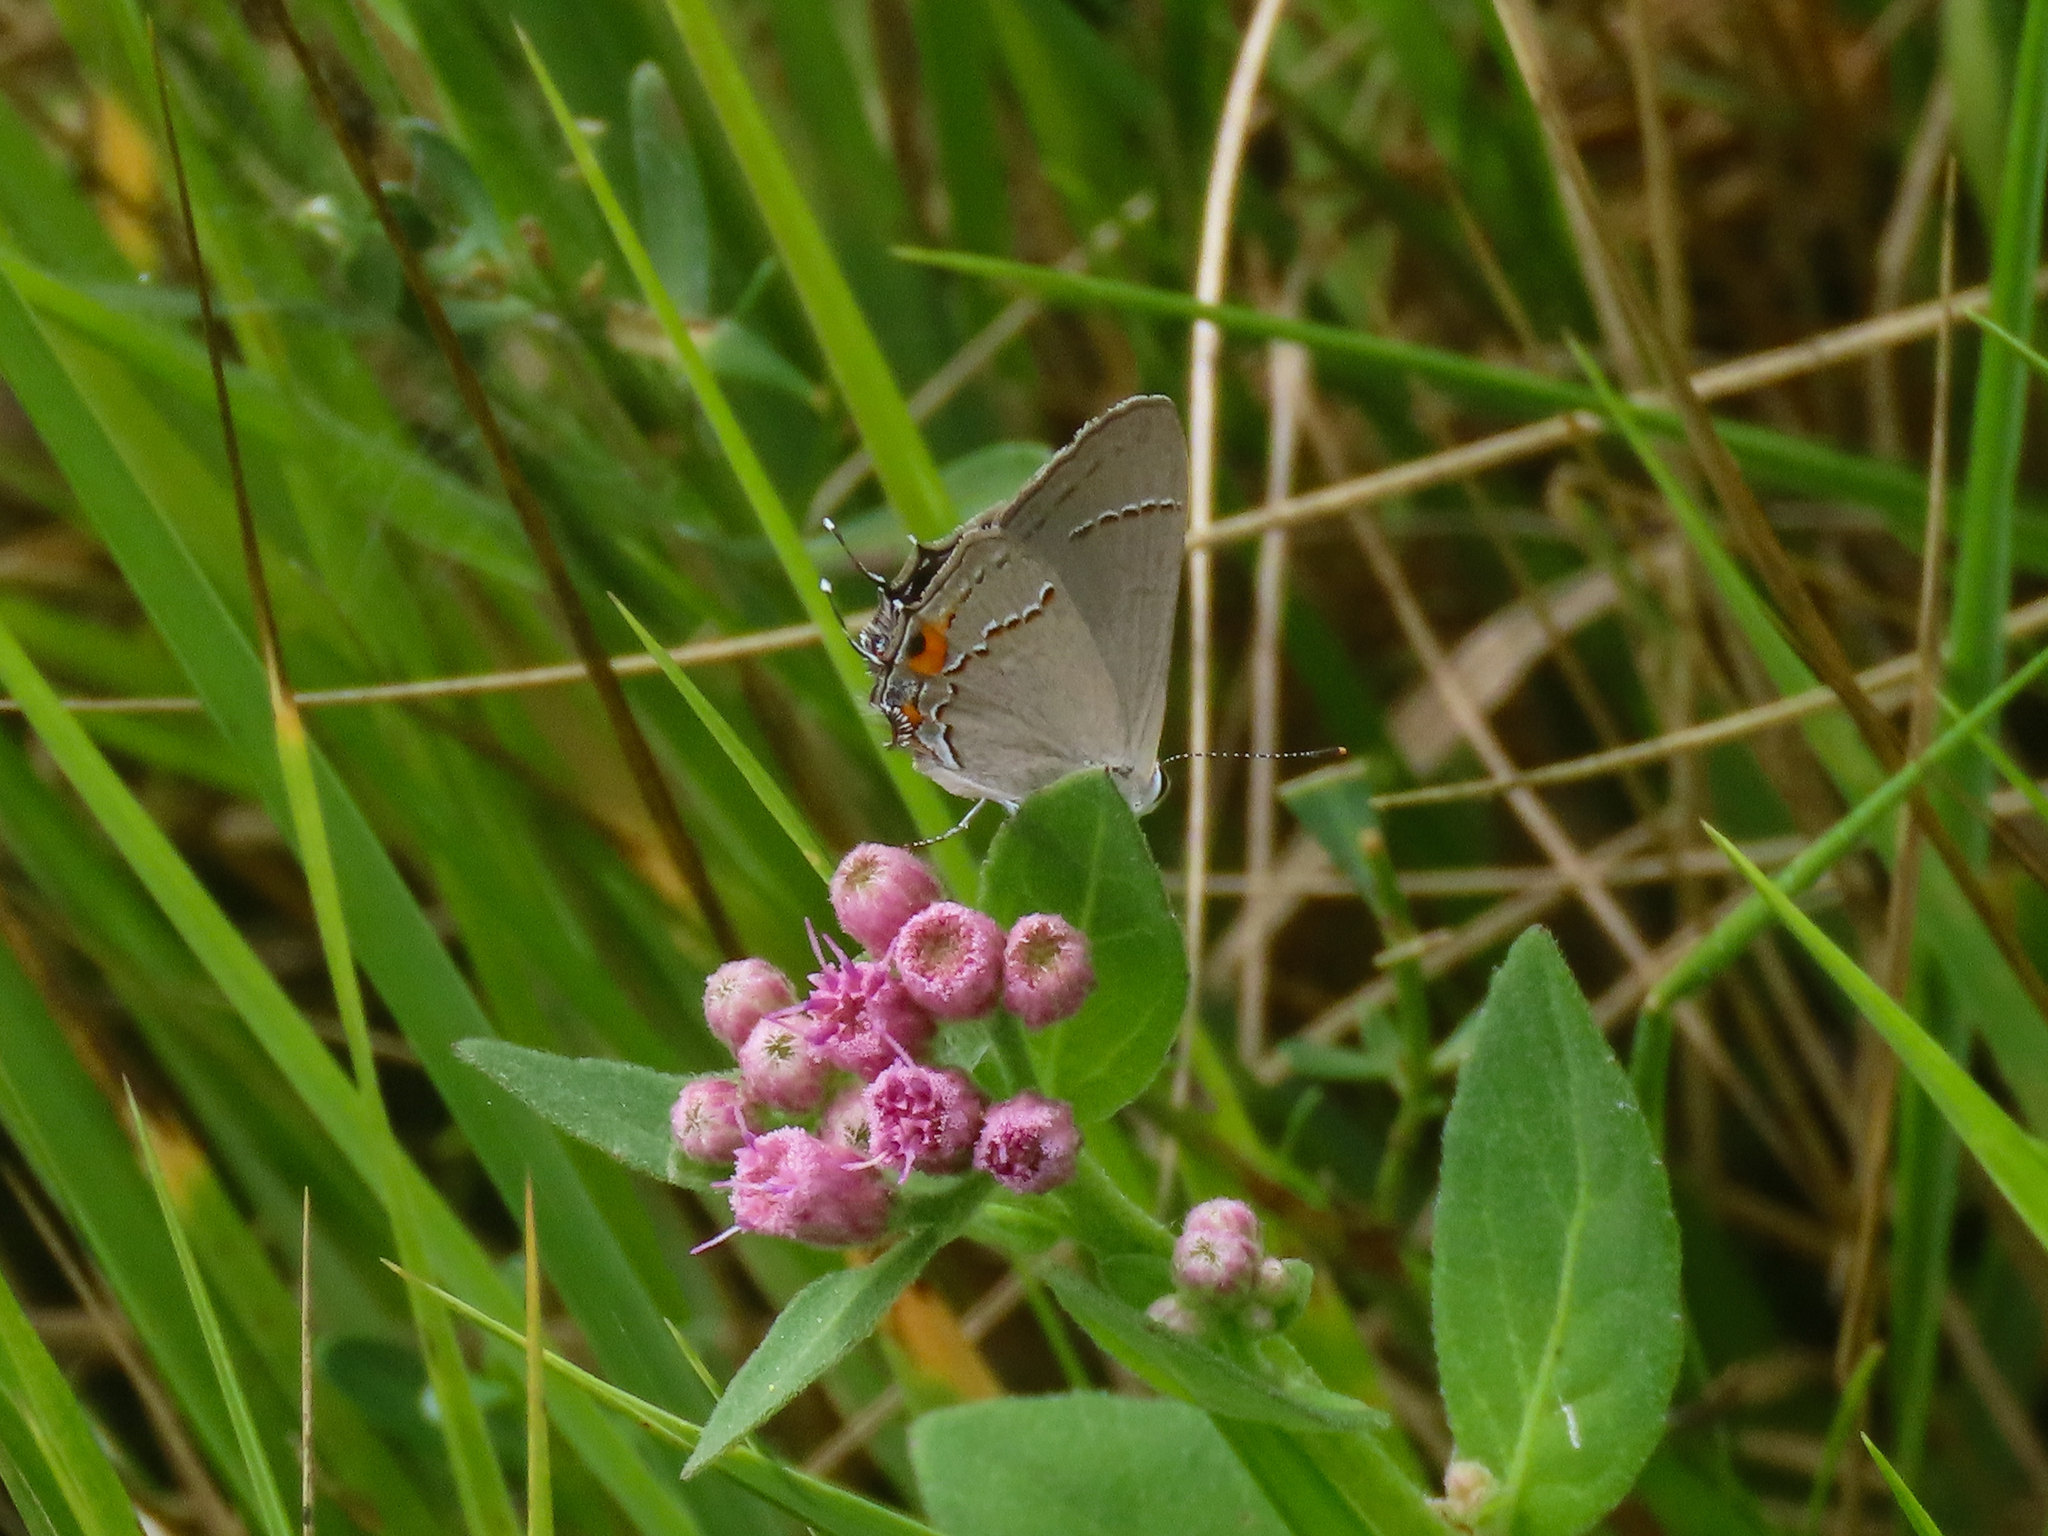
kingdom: Animalia
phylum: Arthropoda
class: Insecta
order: Lepidoptera
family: Lycaenidae
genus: Strymon
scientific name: Strymon melinus
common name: Gray hairstreak
